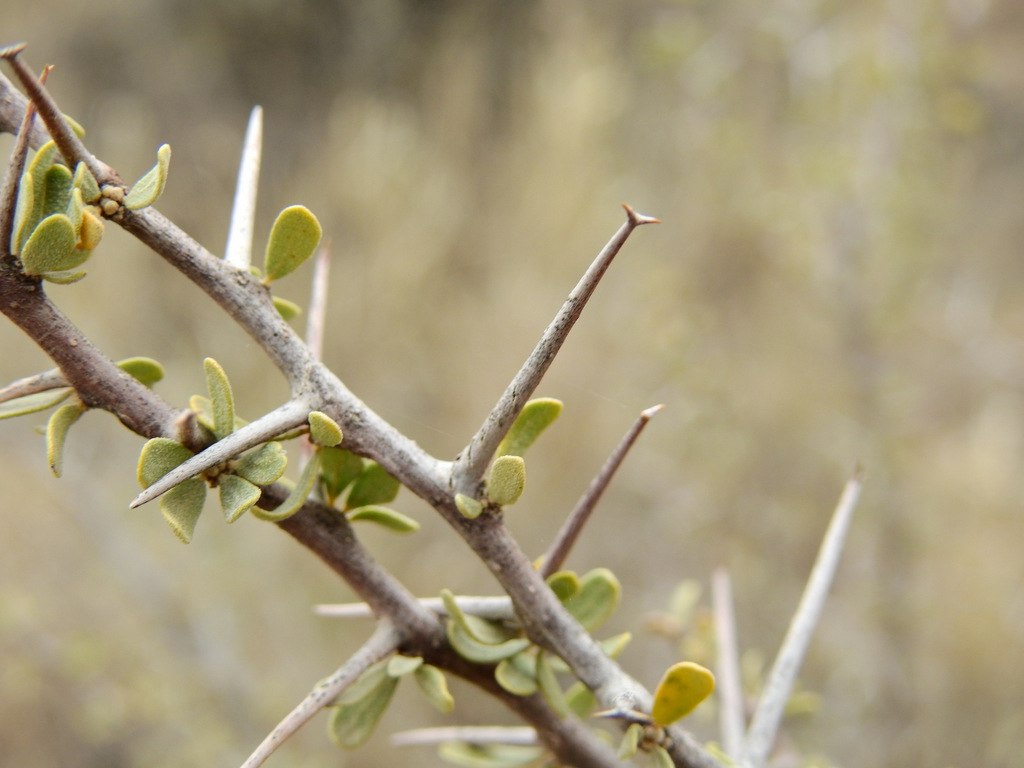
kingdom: Plantae
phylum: Tracheophyta
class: Magnoliopsida
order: Caryophyllales
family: Nyctaginaceae
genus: Bougainvillea
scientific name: Bougainvillea spinosa
